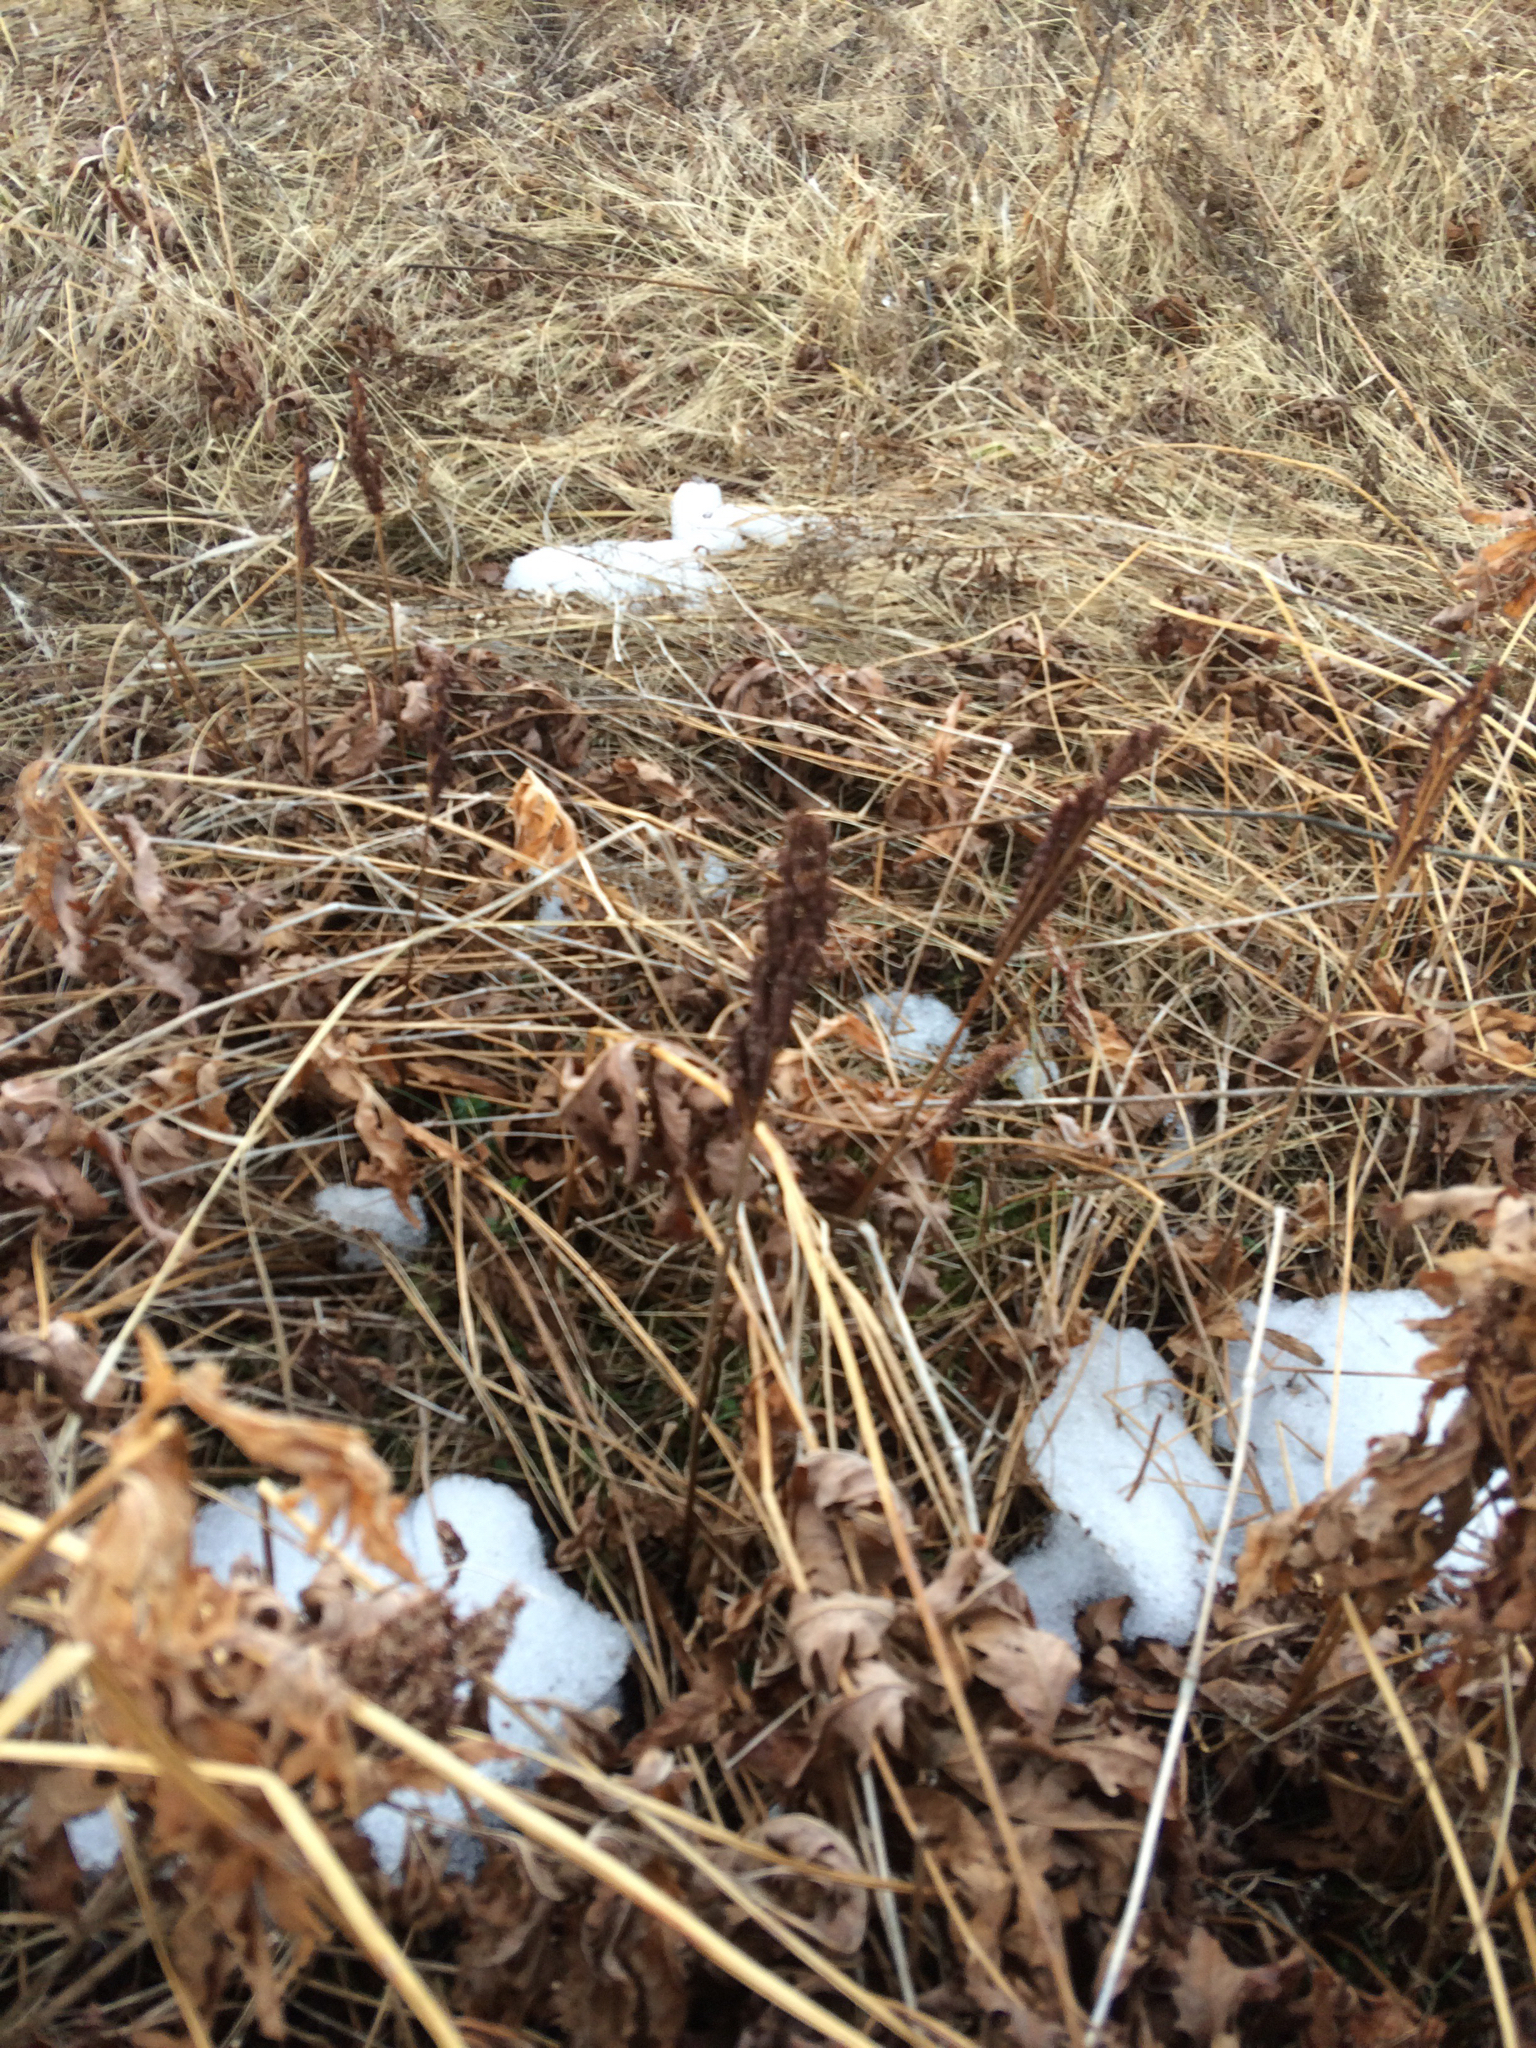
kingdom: Plantae
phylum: Tracheophyta
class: Polypodiopsida
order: Polypodiales
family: Onocleaceae
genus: Onoclea
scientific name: Onoclea sensibilis
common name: Sensitive fern
